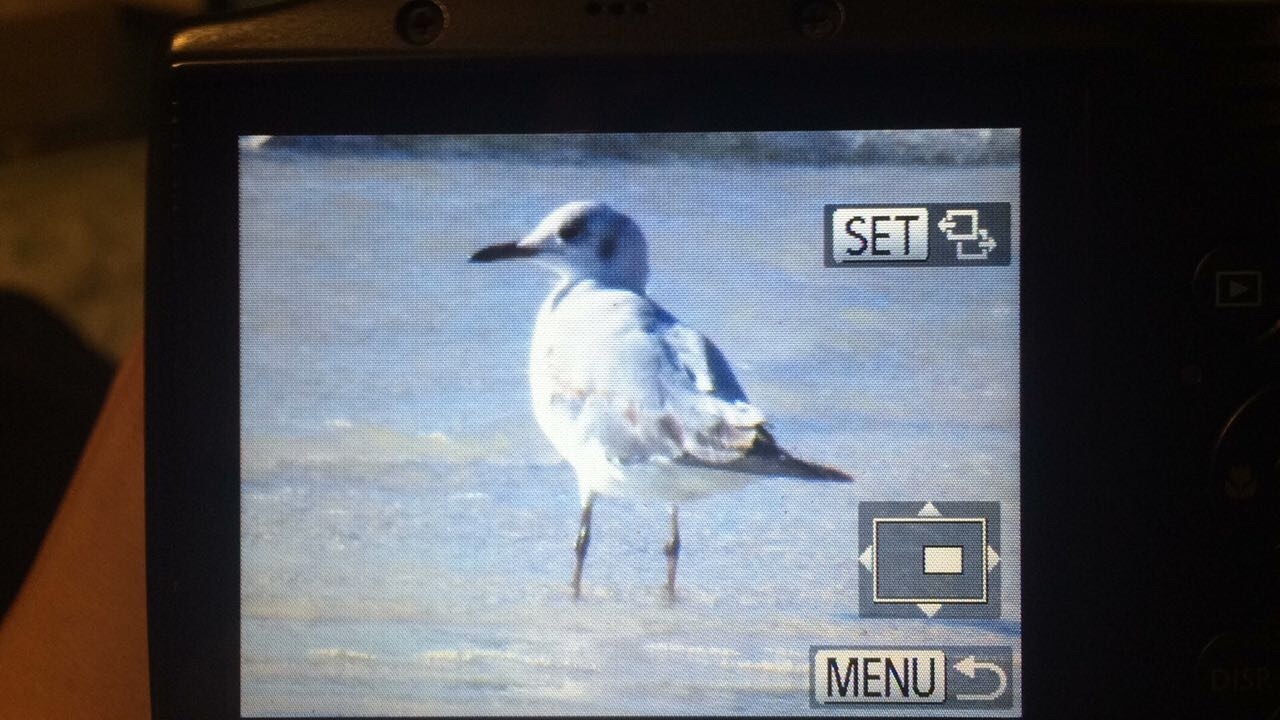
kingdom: Animalia
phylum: Chordata
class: Aves
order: Charadriiformes
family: Laridae
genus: Chroicocephalus
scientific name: Chroicocephalus cirrocephalus
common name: Grey-headed gull
